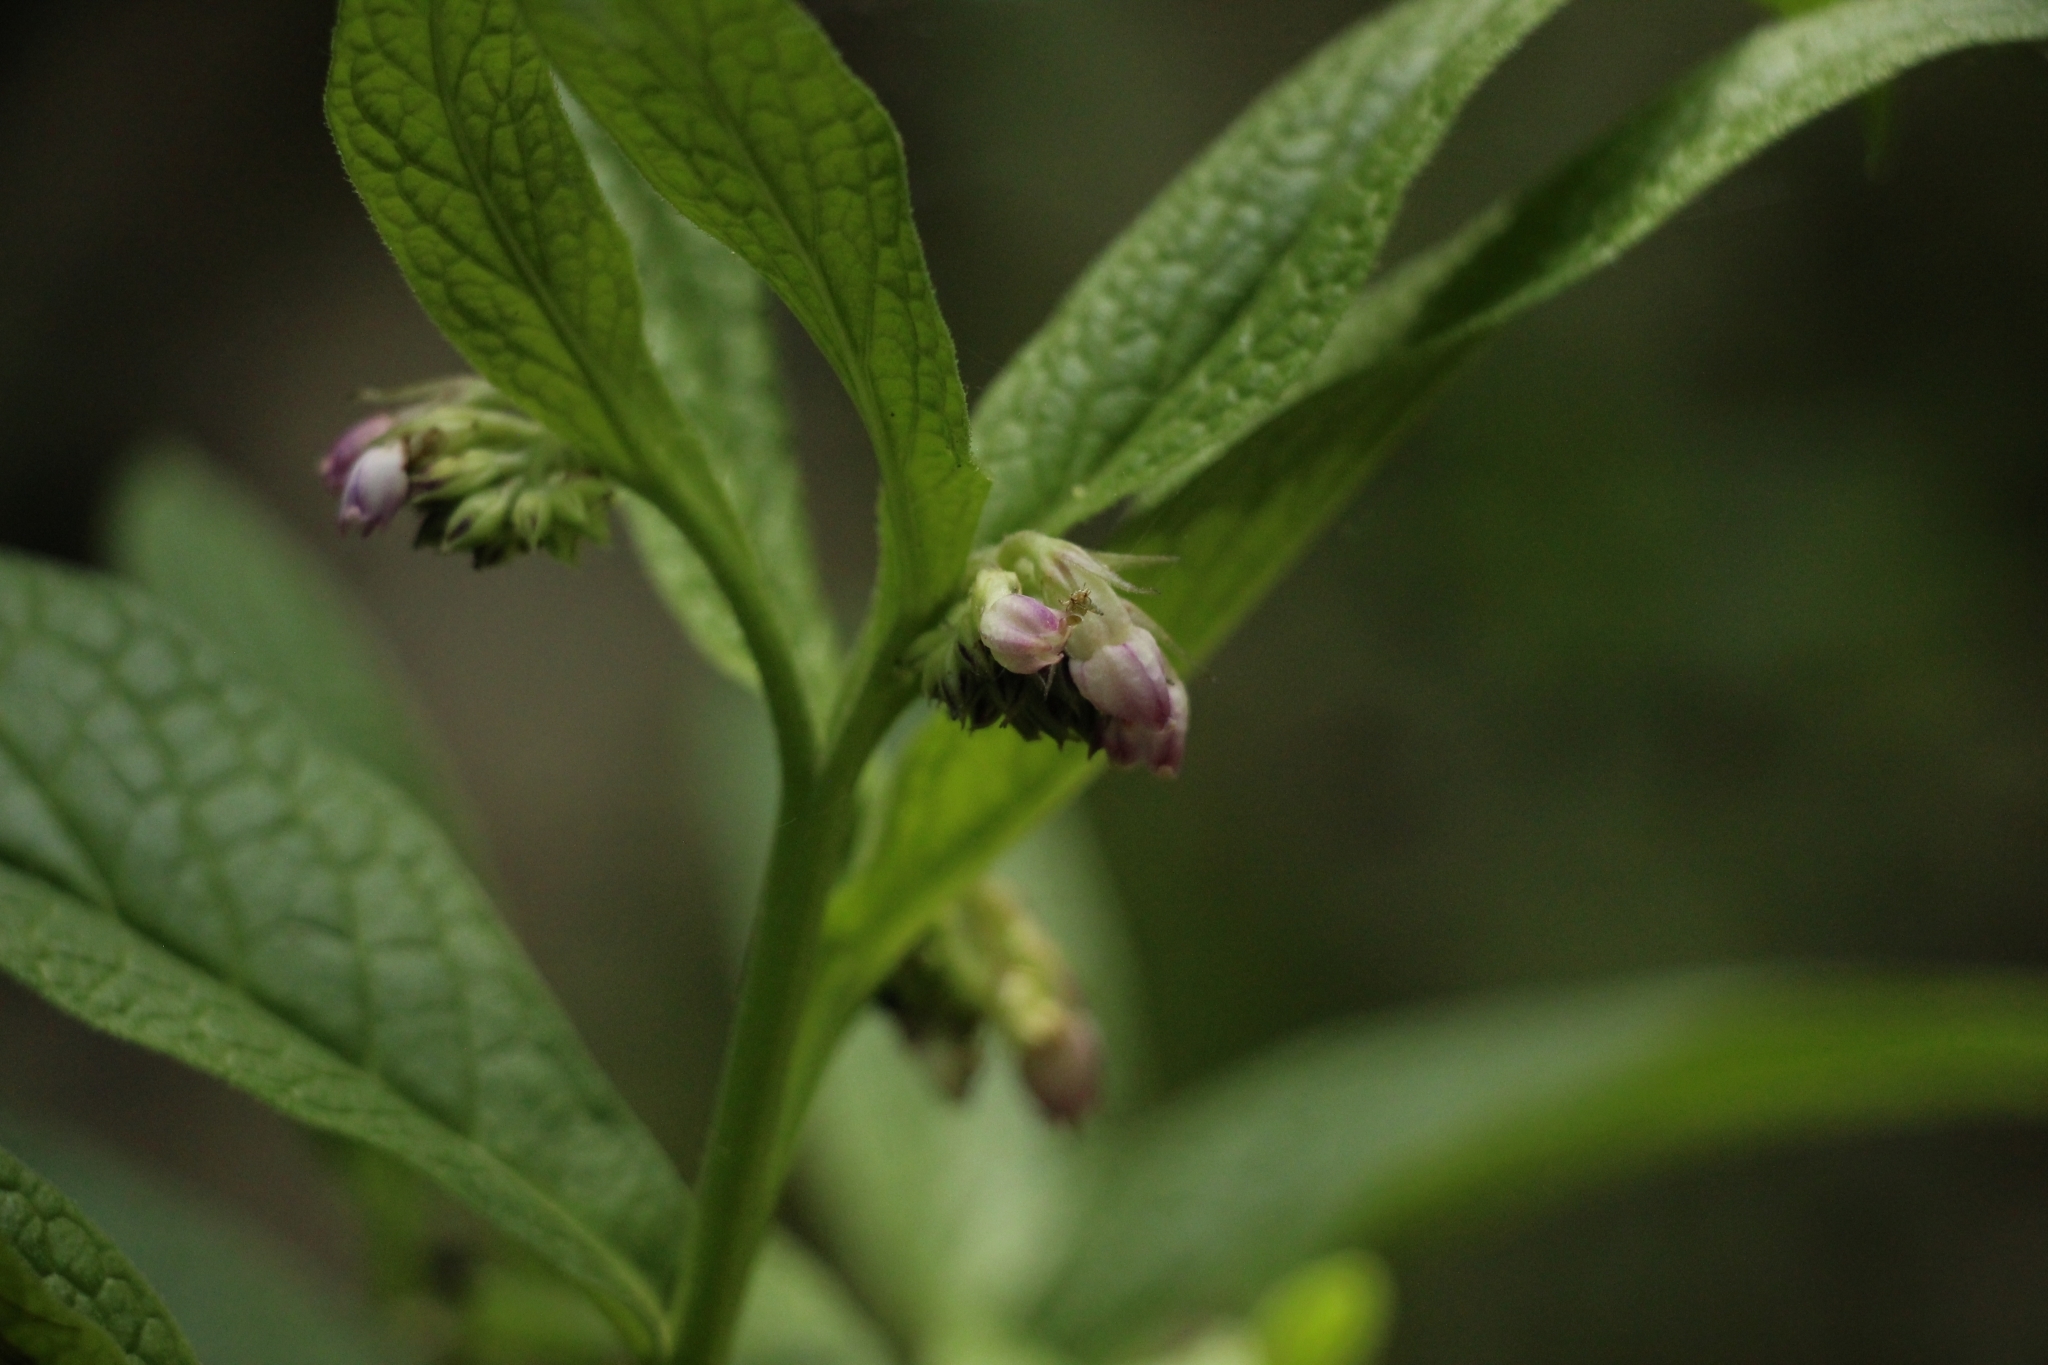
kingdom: Plantae
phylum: Tracheophyta
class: Magnoliopsida
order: Boraginales
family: Boraginaceae
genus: Symphytum
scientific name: Symphytum officinale
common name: Common comfrey
